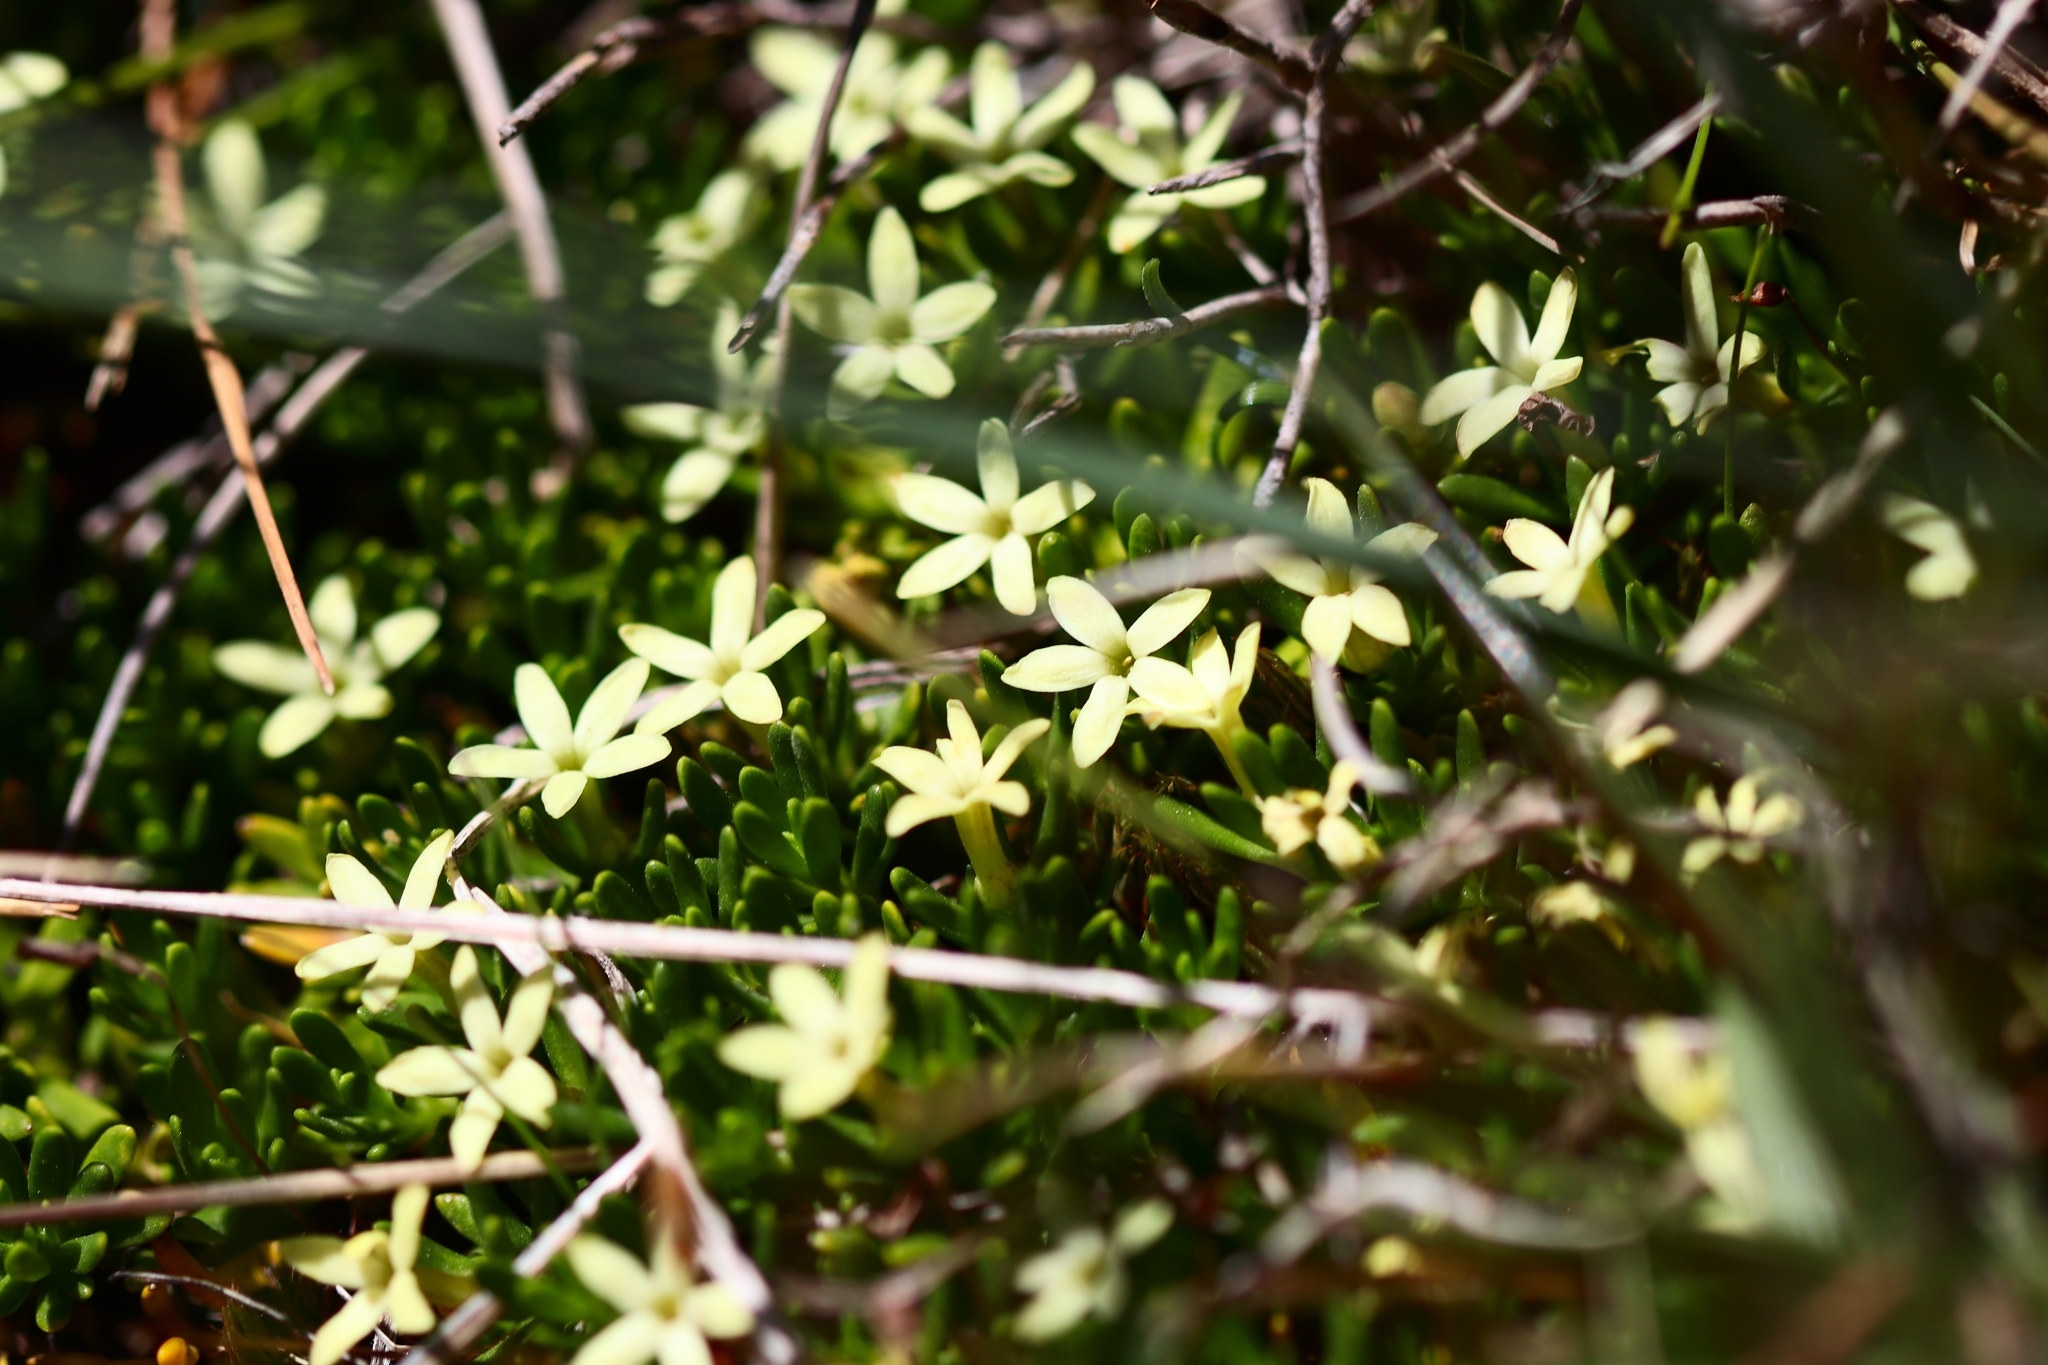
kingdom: Plantae
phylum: Tracheophyta
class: Magnoliopsida
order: Celastrales
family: Celastraceae
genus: Stackhousia
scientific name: Stackhousia pulvinaris
